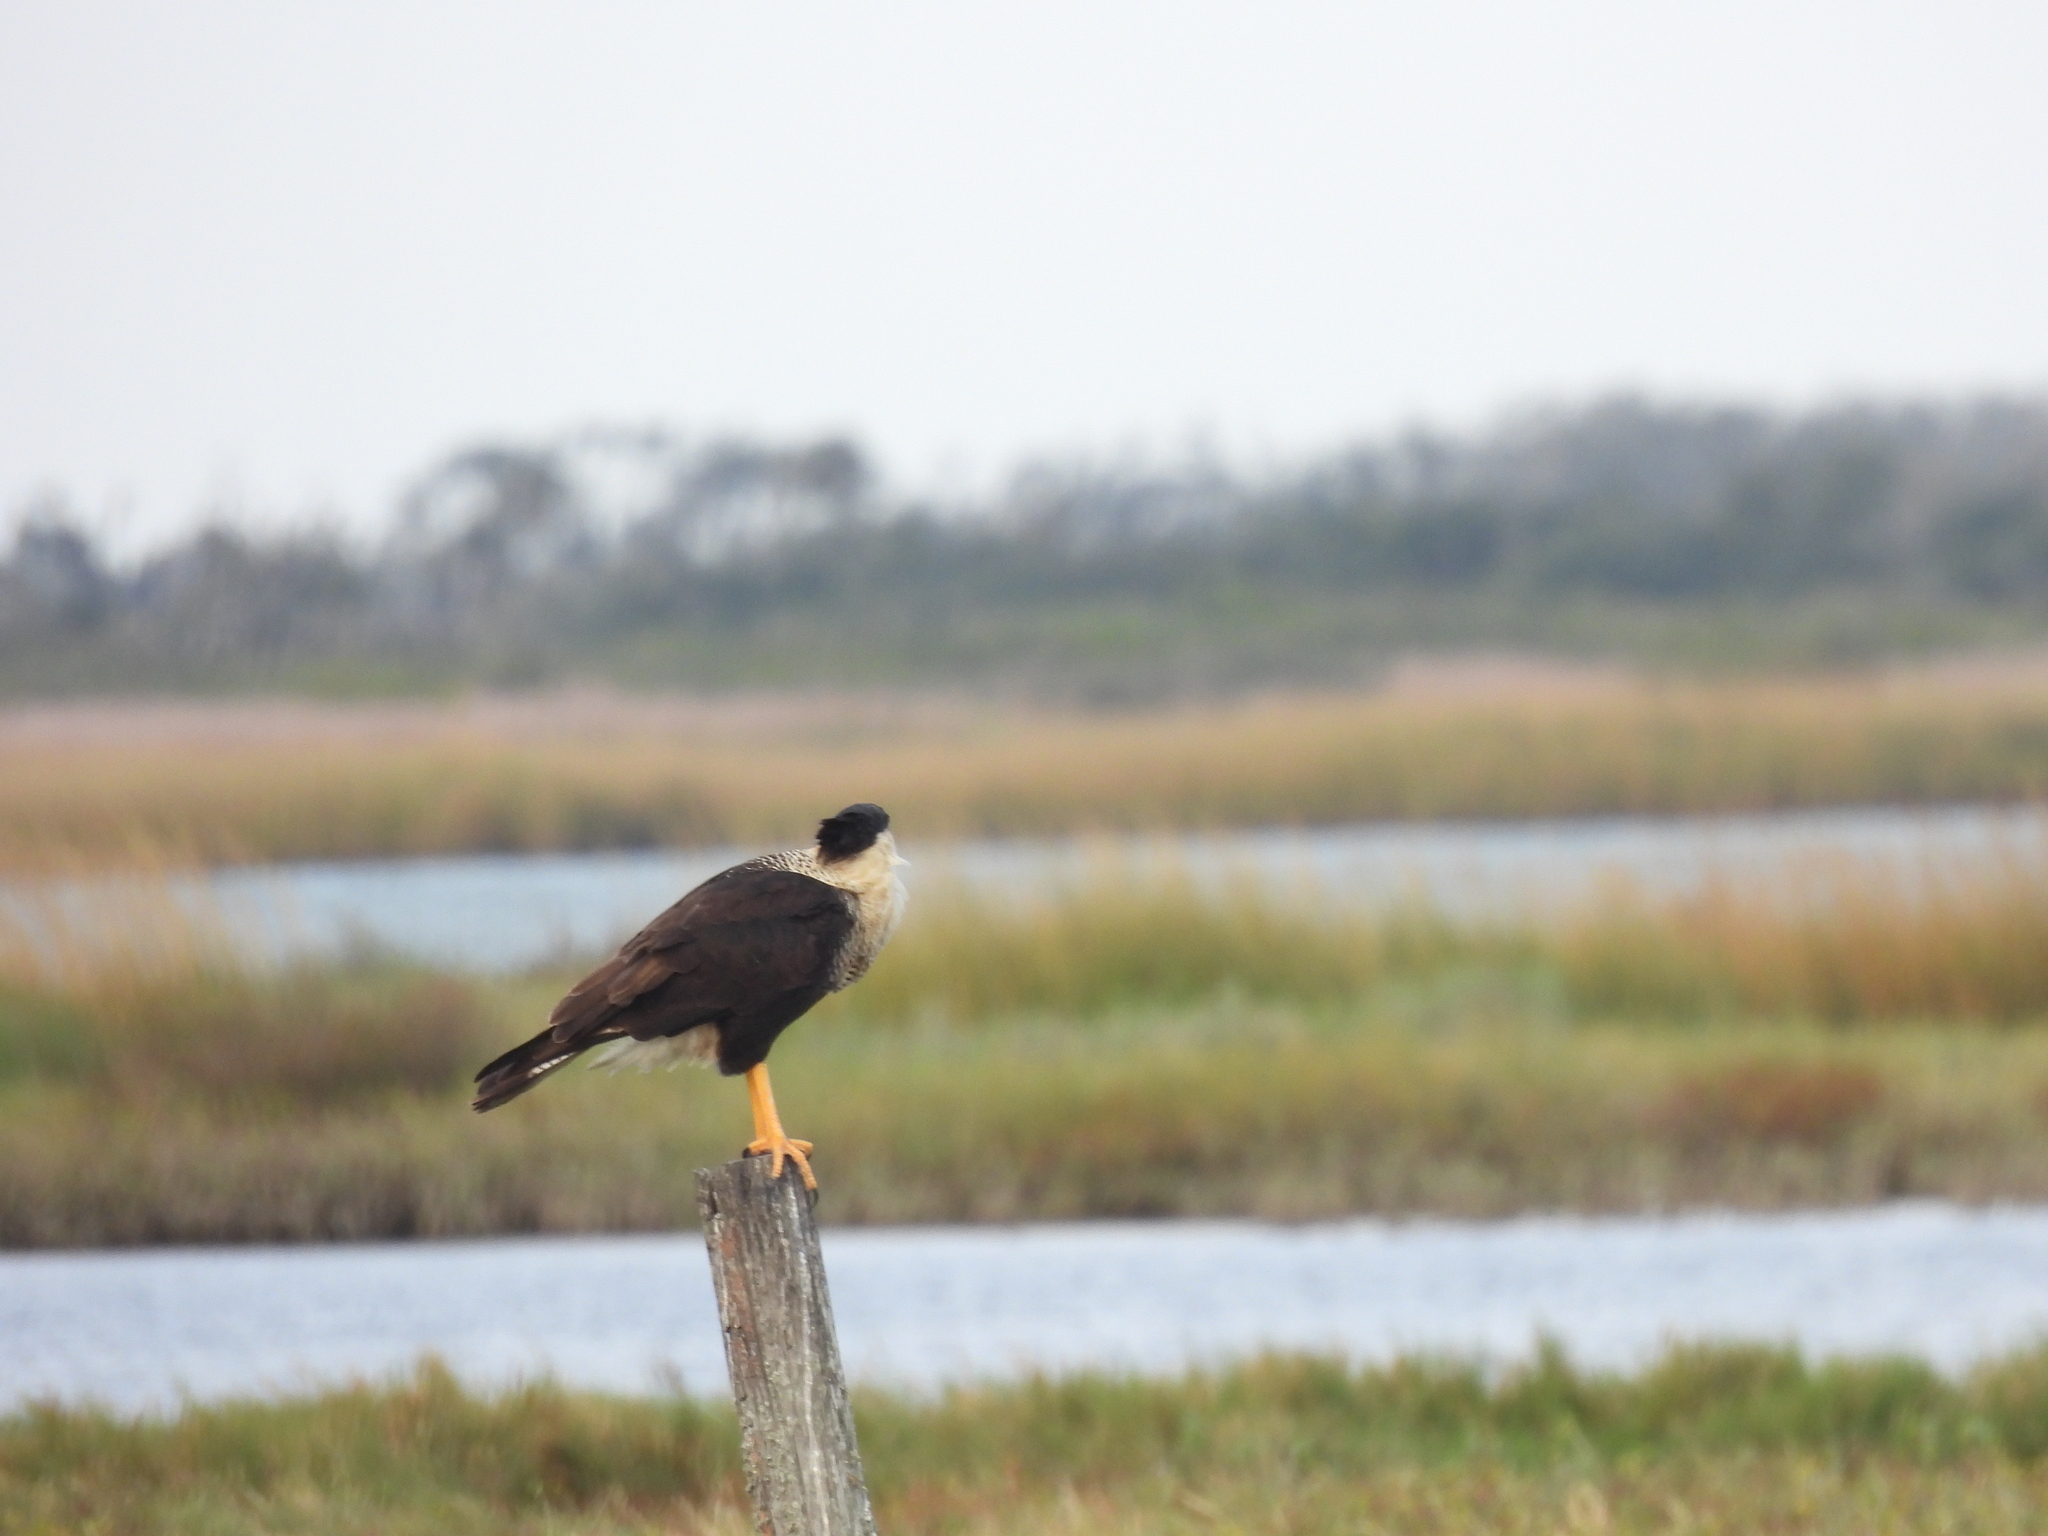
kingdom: Animalia
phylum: Chordata
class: Aves
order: Falconiformes
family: Falconidae
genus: Caracara
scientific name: Caracara plancus
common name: Southern caracara
